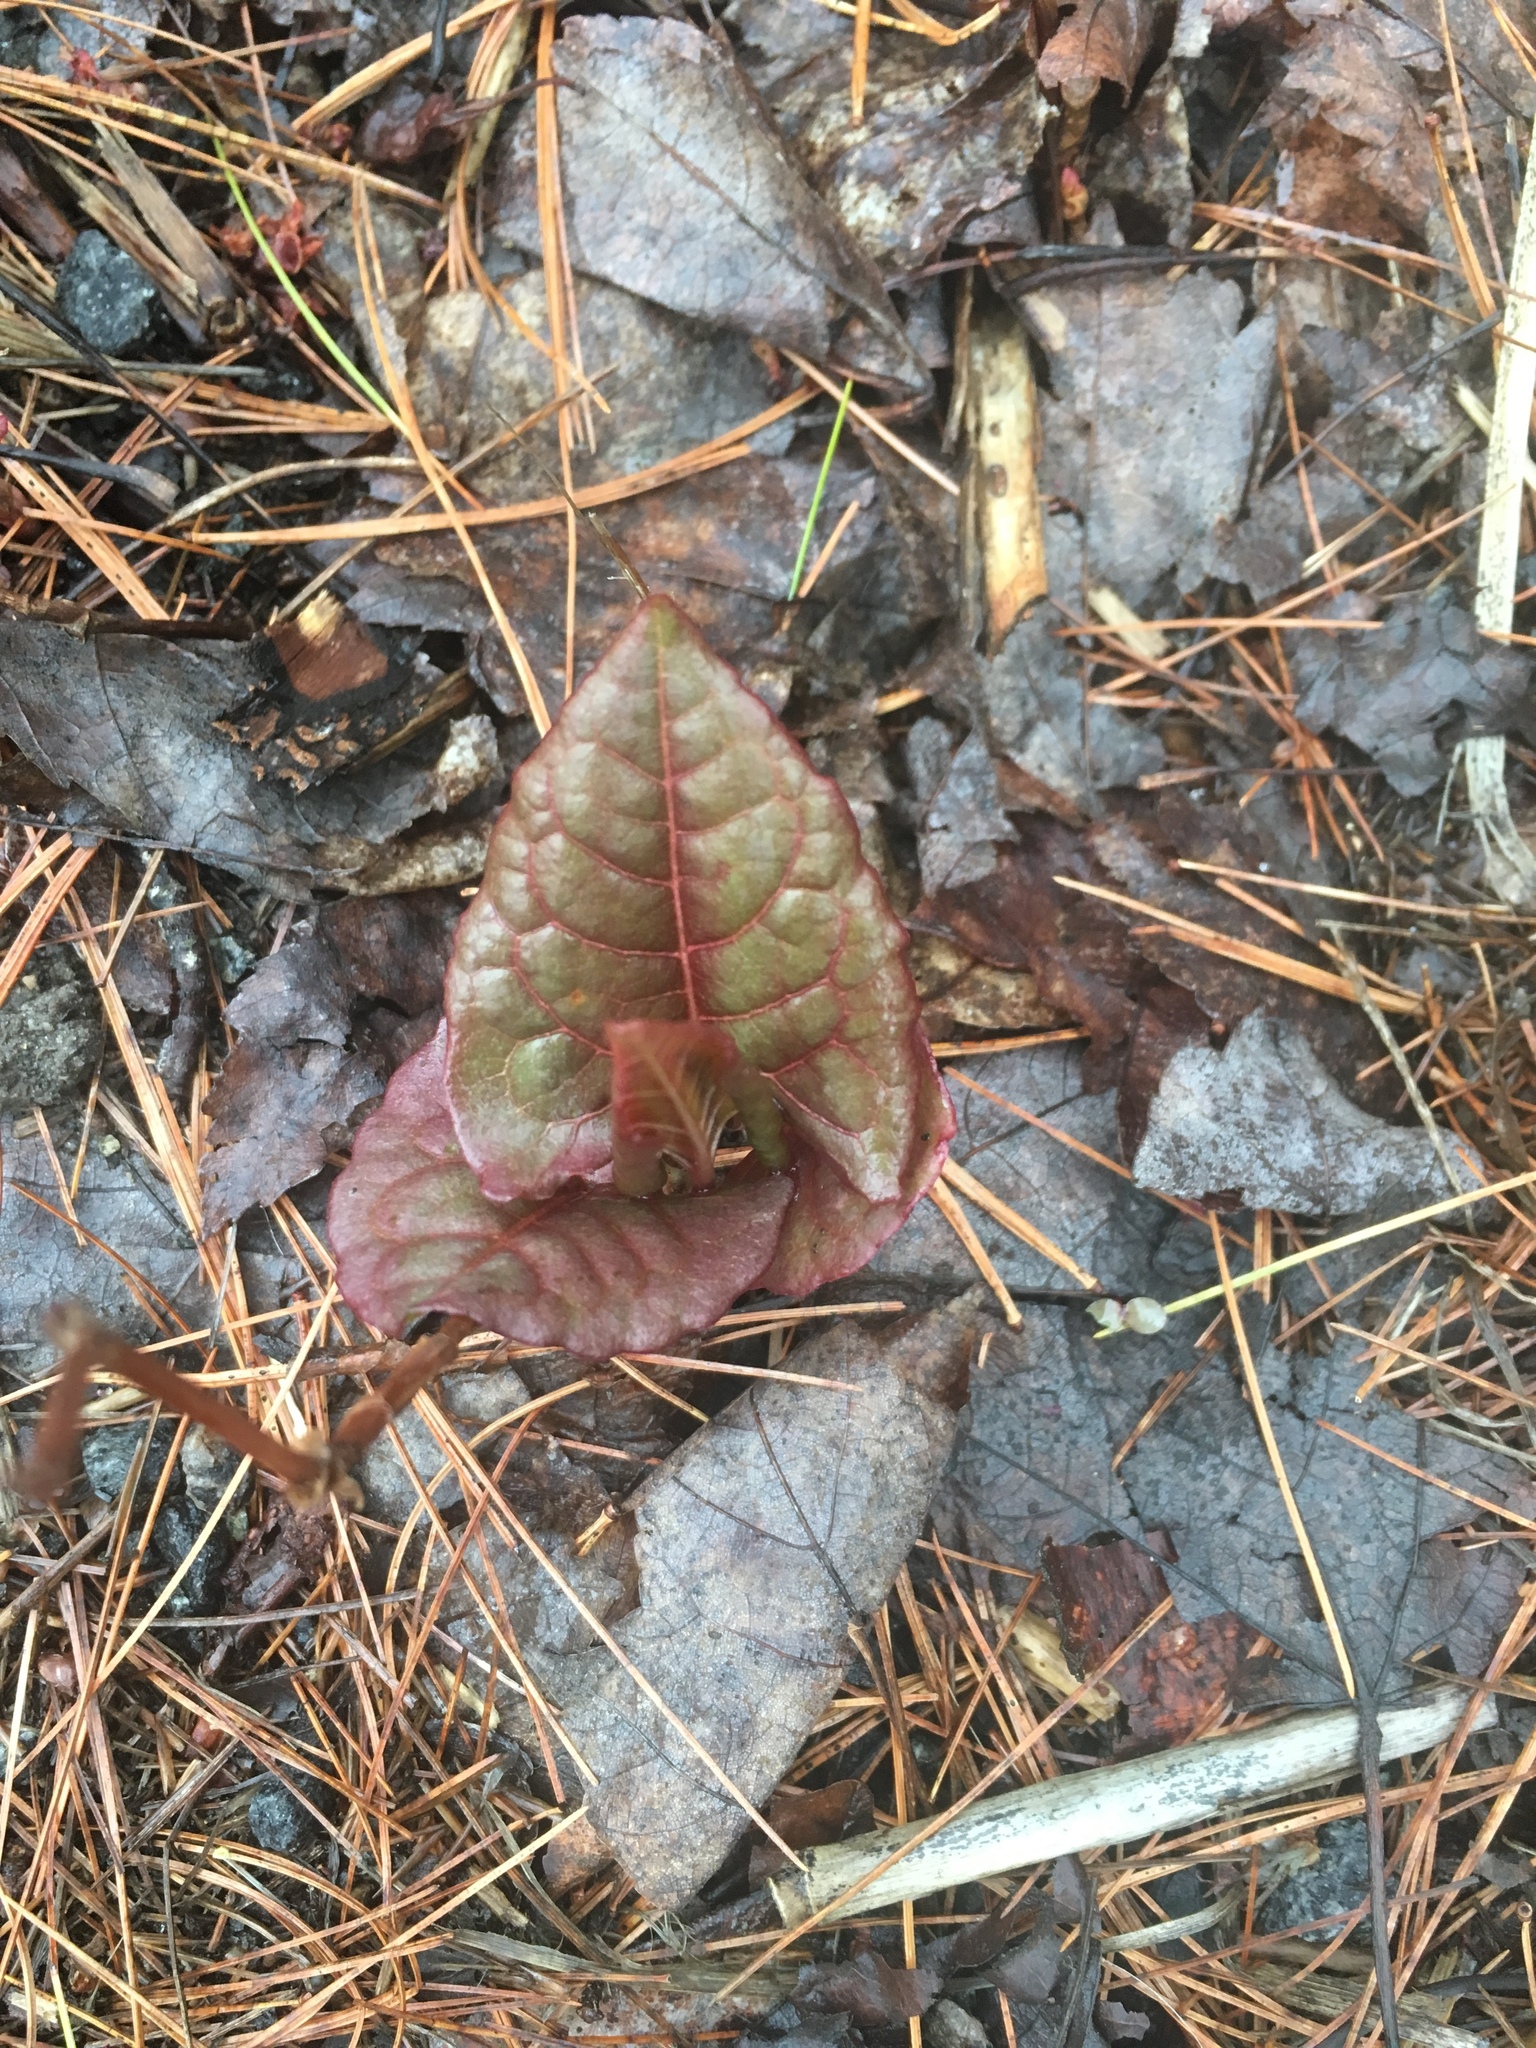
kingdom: Plantae
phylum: Tracheophyta
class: Magnoliopsida
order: Caryophyllales
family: Polygonaceae
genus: Reynoutria
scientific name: Reynoutria japonica
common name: Japanese knotweed
